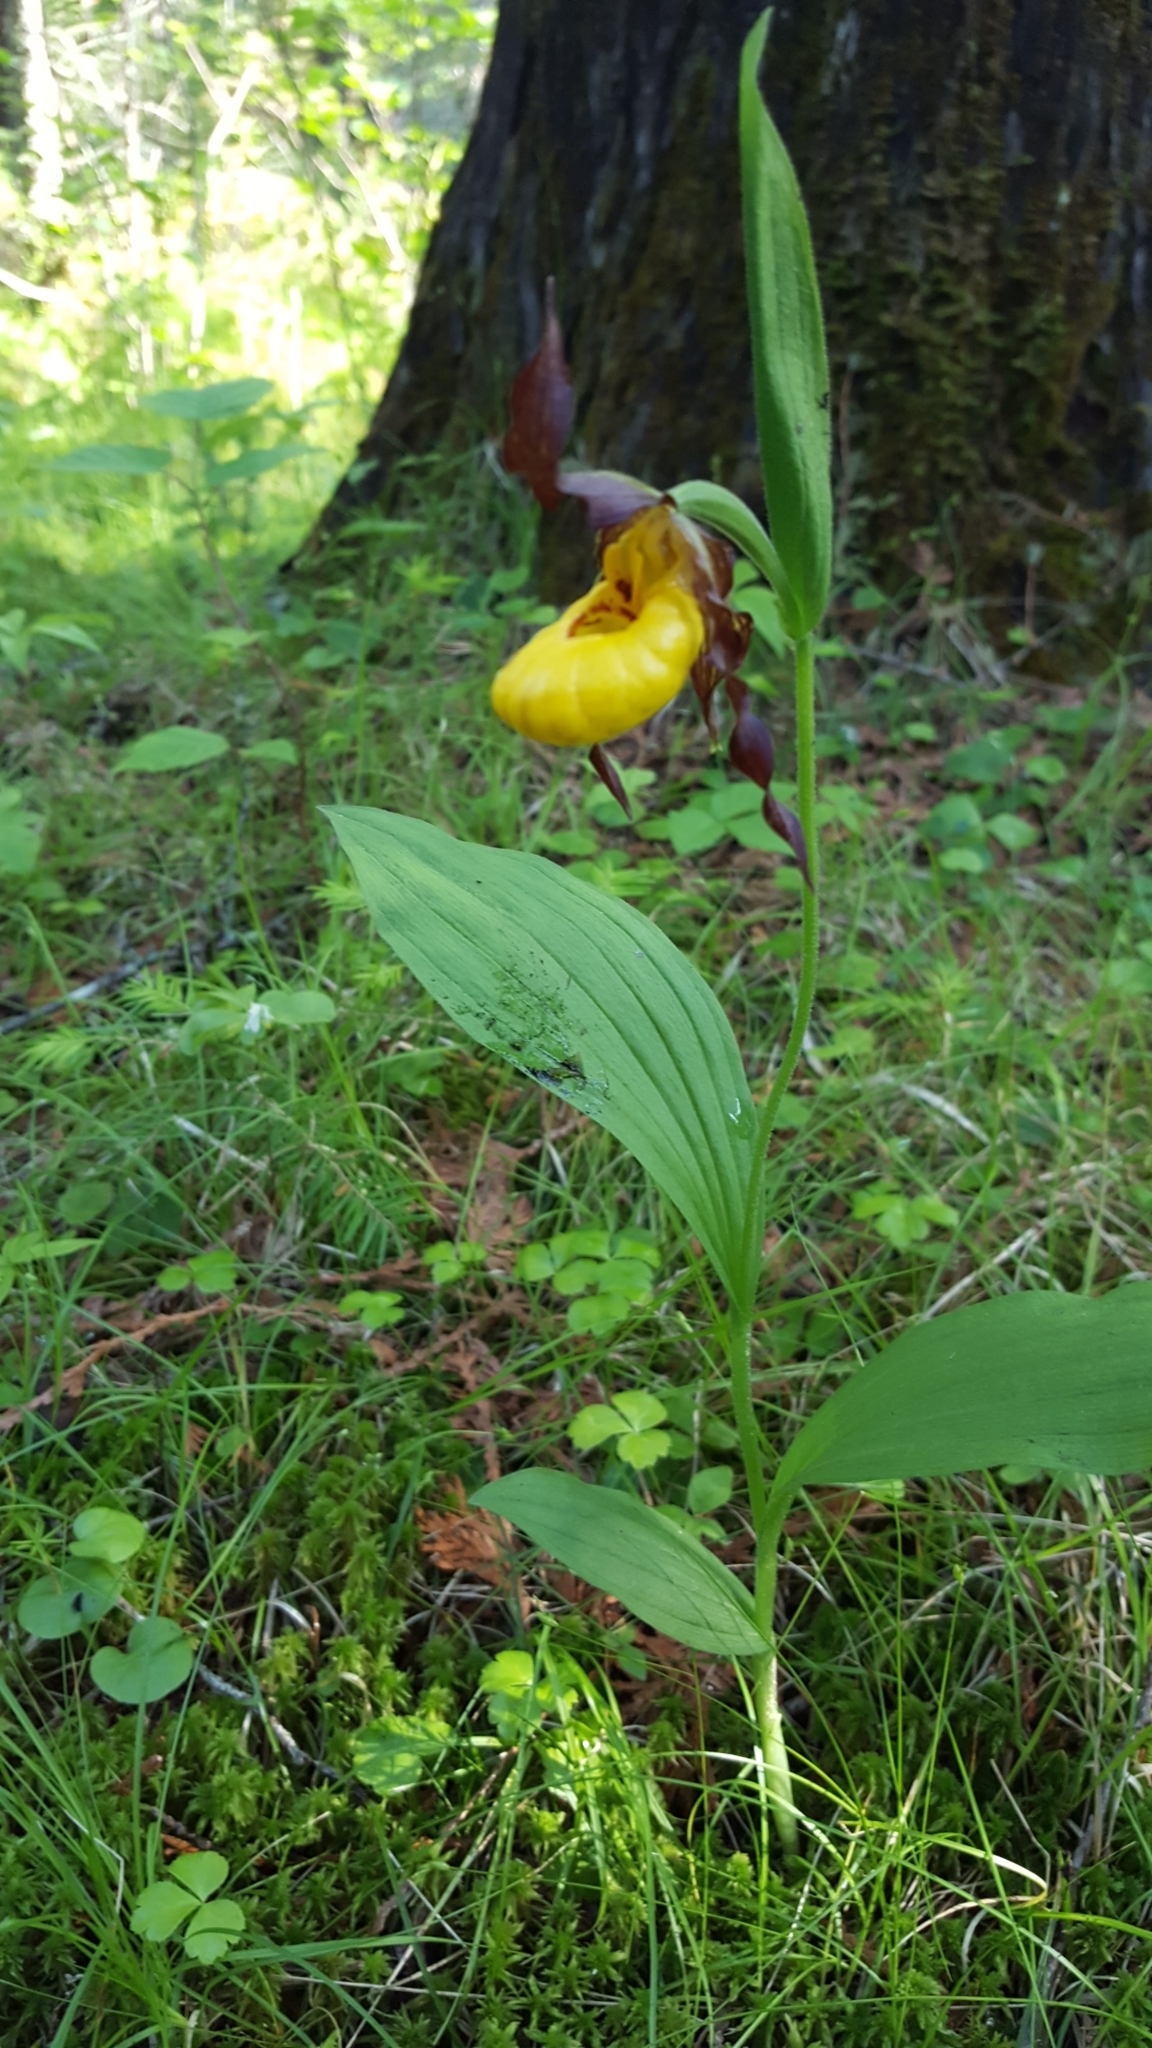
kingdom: Plantae
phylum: Tracheophyta
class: Liliopsida
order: Asparagales
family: Orchidaceae
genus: Cypripedium
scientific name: Cypripedium parviflorum
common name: American yellow lady's-slipper
